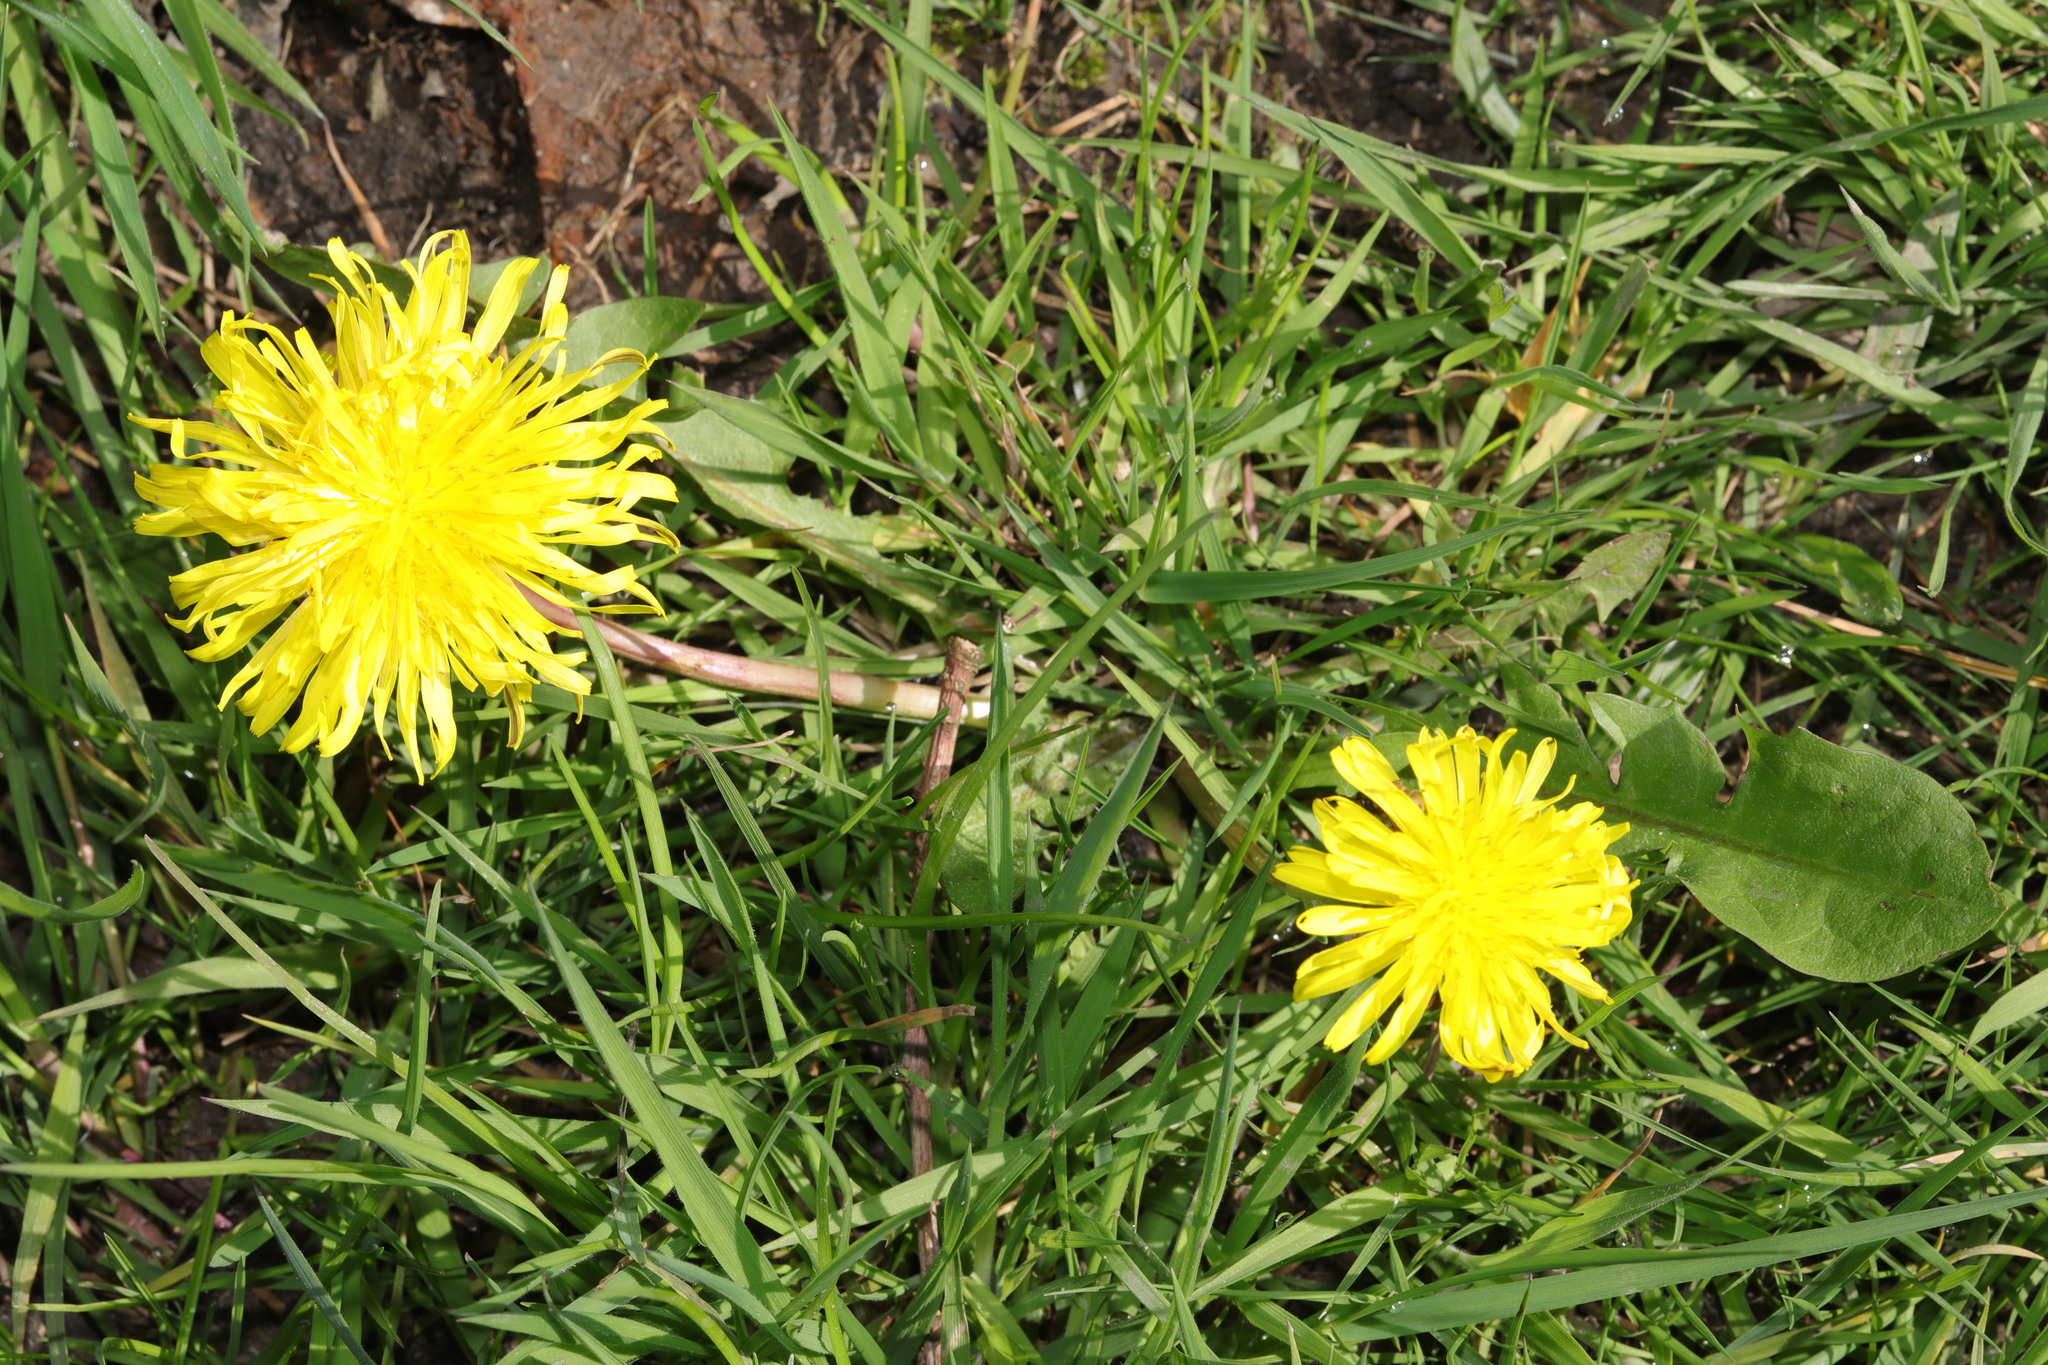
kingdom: Plantae
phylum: Tracheophyta
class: Magnoliopsida
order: Asterales
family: Asteraceae
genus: Taraxacum
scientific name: Taraxacum officinale
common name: Common dandelion
